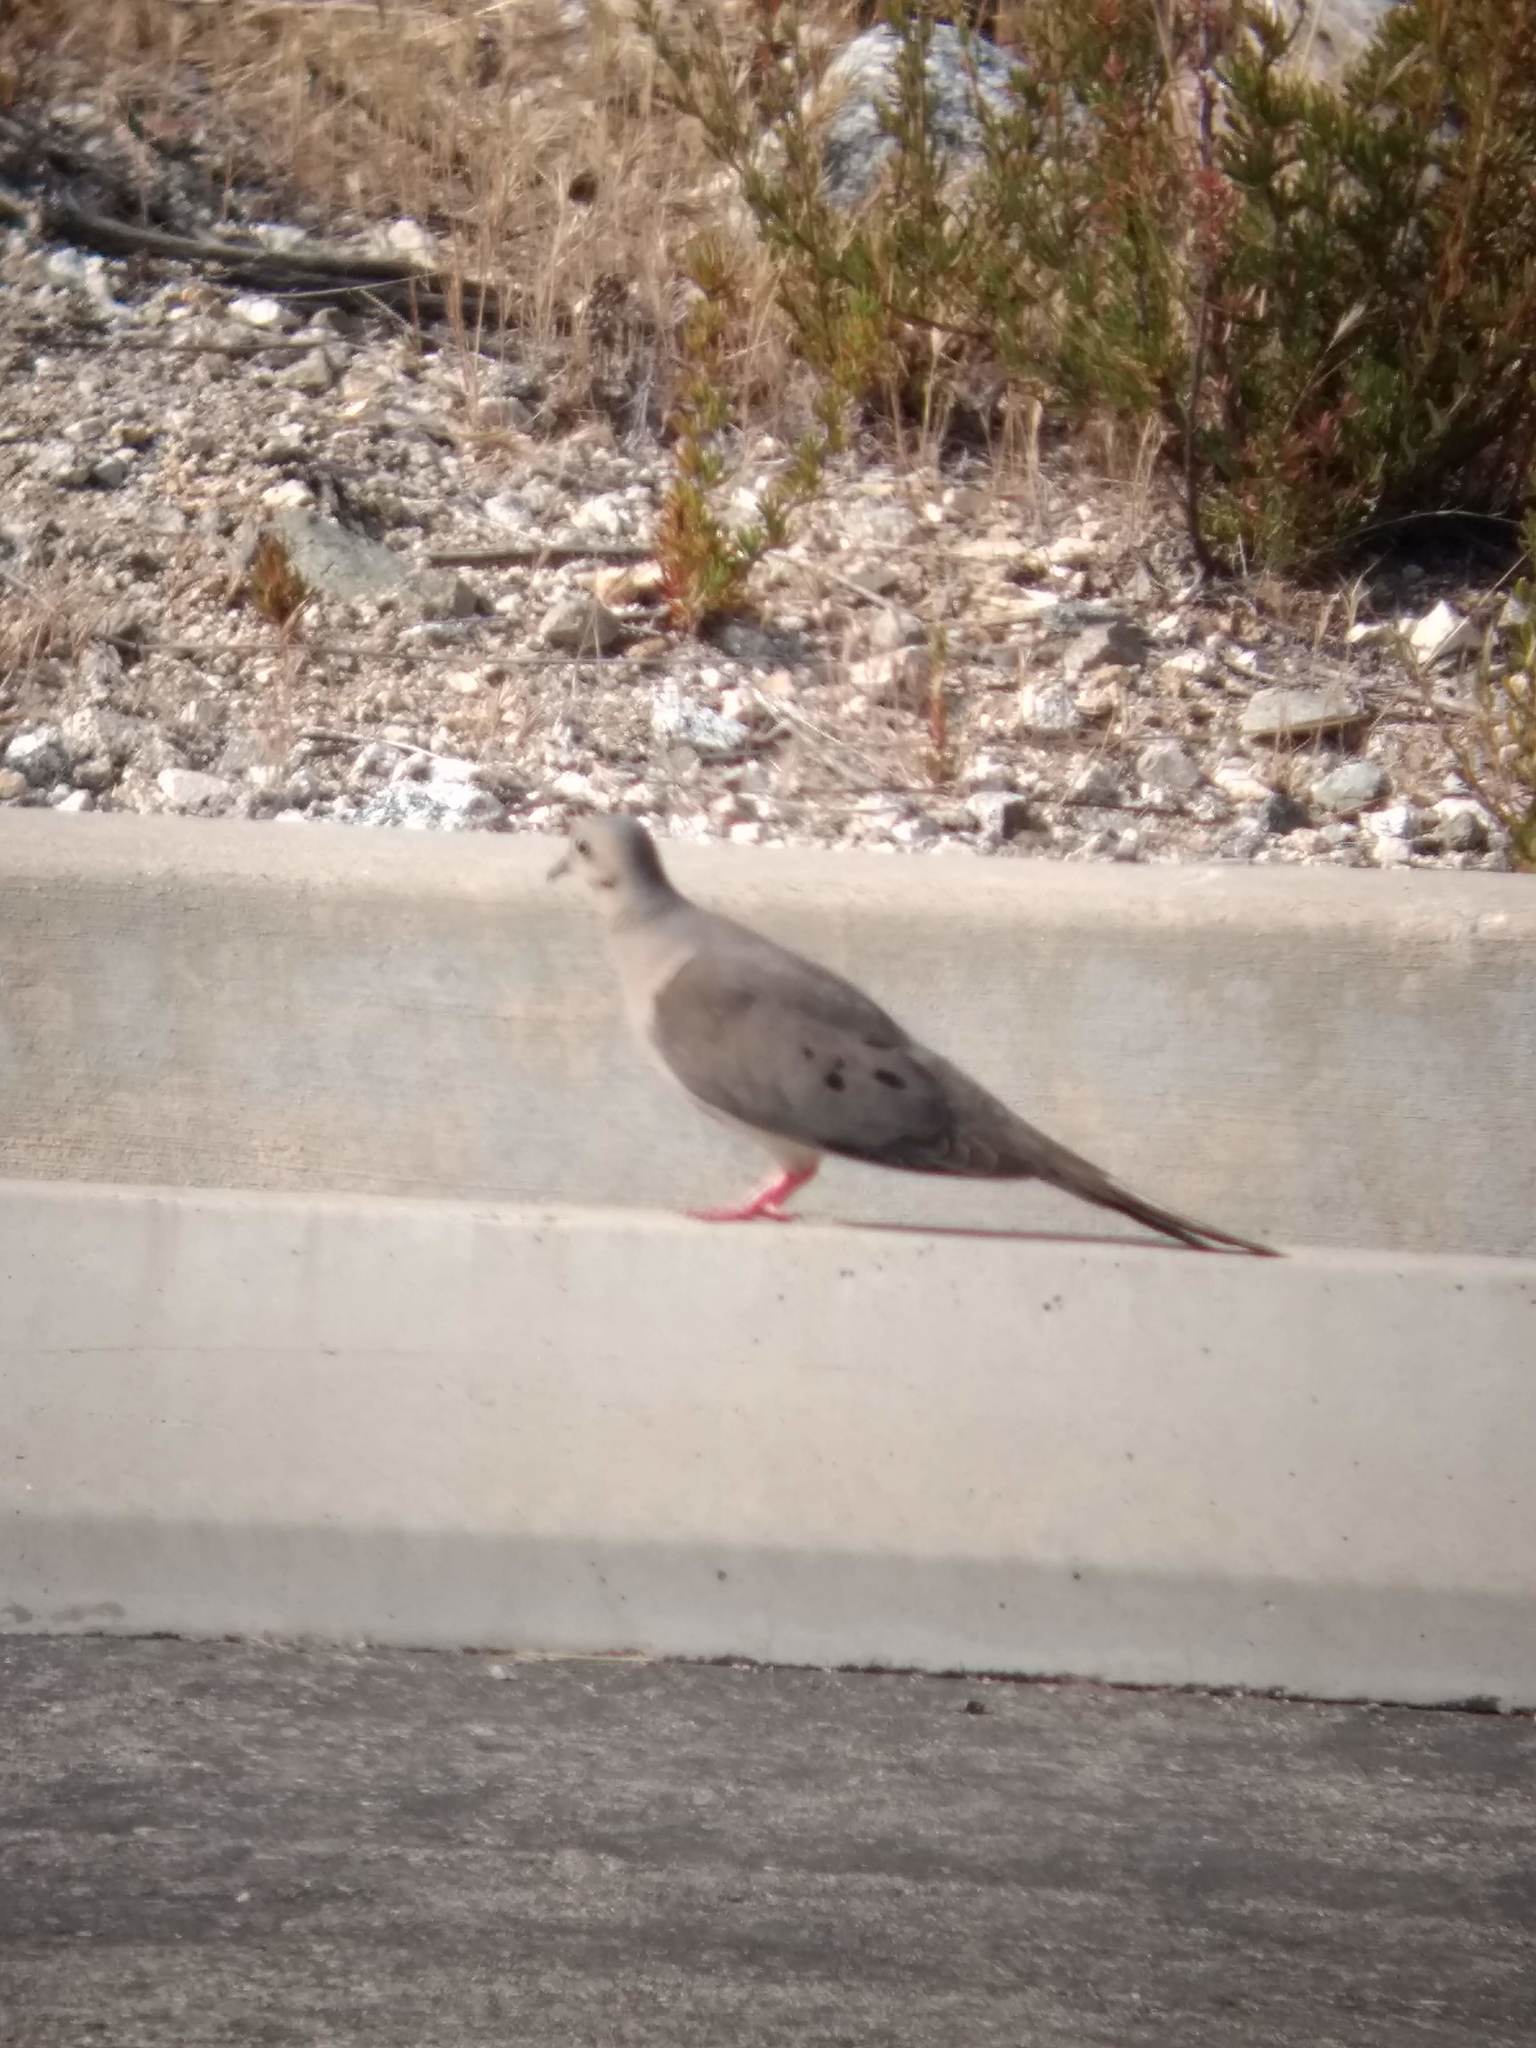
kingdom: Animalia
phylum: Chordata
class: Aves
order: Columbiformes
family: Columbidae
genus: Zenaida
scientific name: Zenaida macroura
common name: Mourning dove
